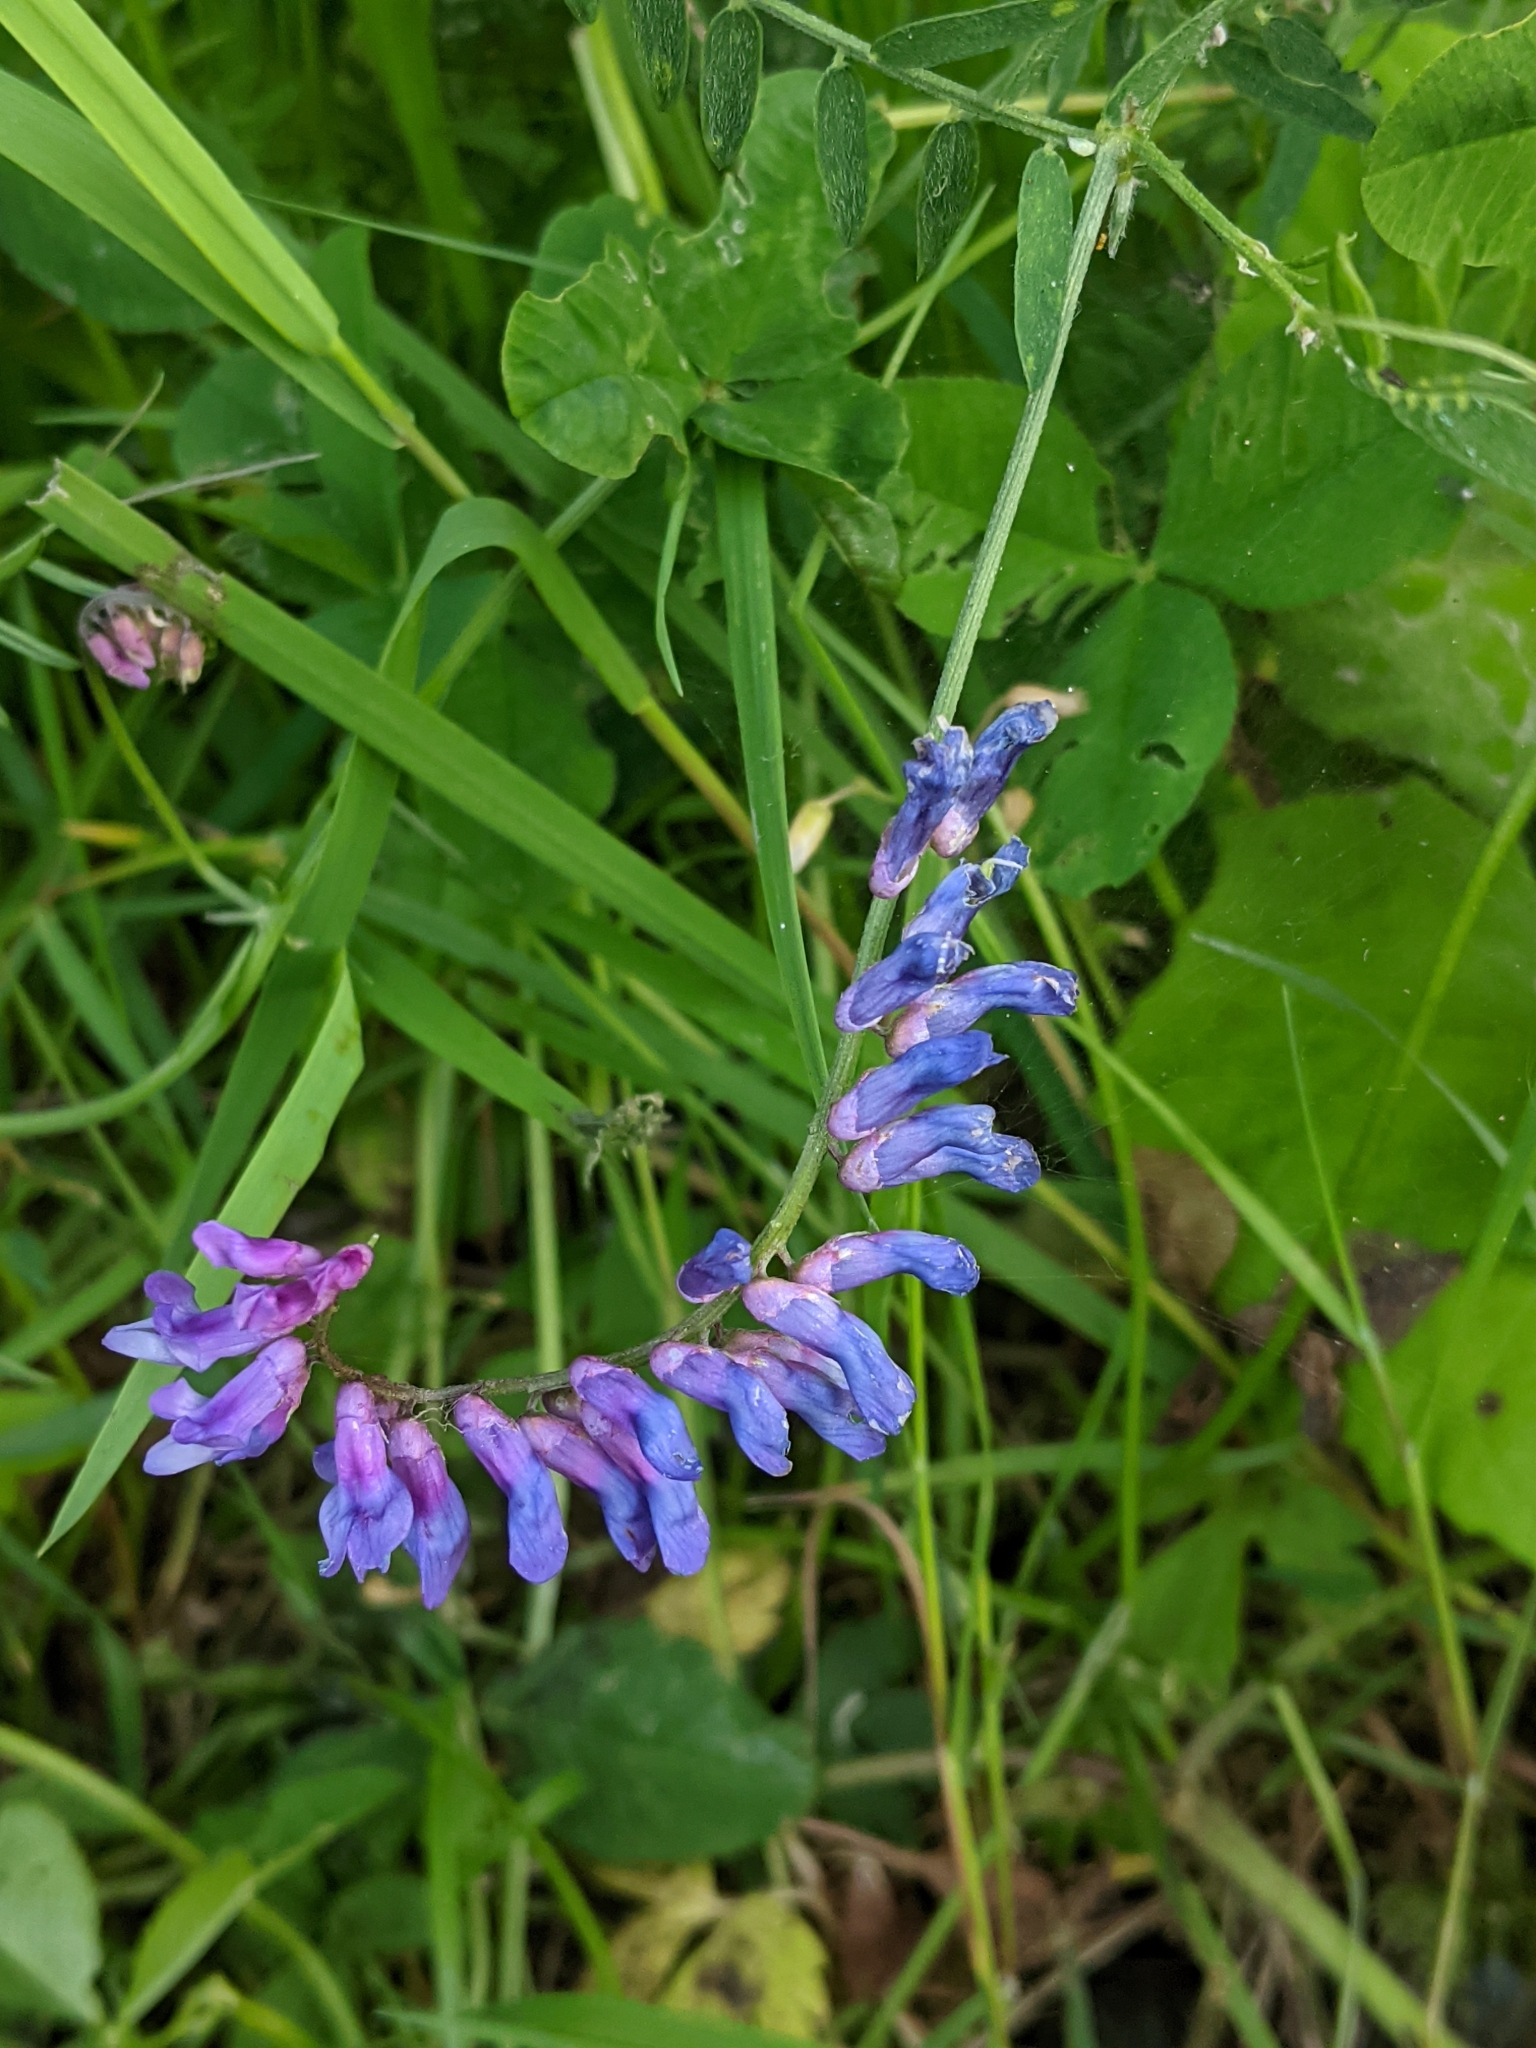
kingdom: Plantae
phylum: Tracheophyta
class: Magnoliopsida
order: Fabales
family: Fabaceae
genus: Vicia
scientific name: Vicia cracca
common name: Bird vetch
